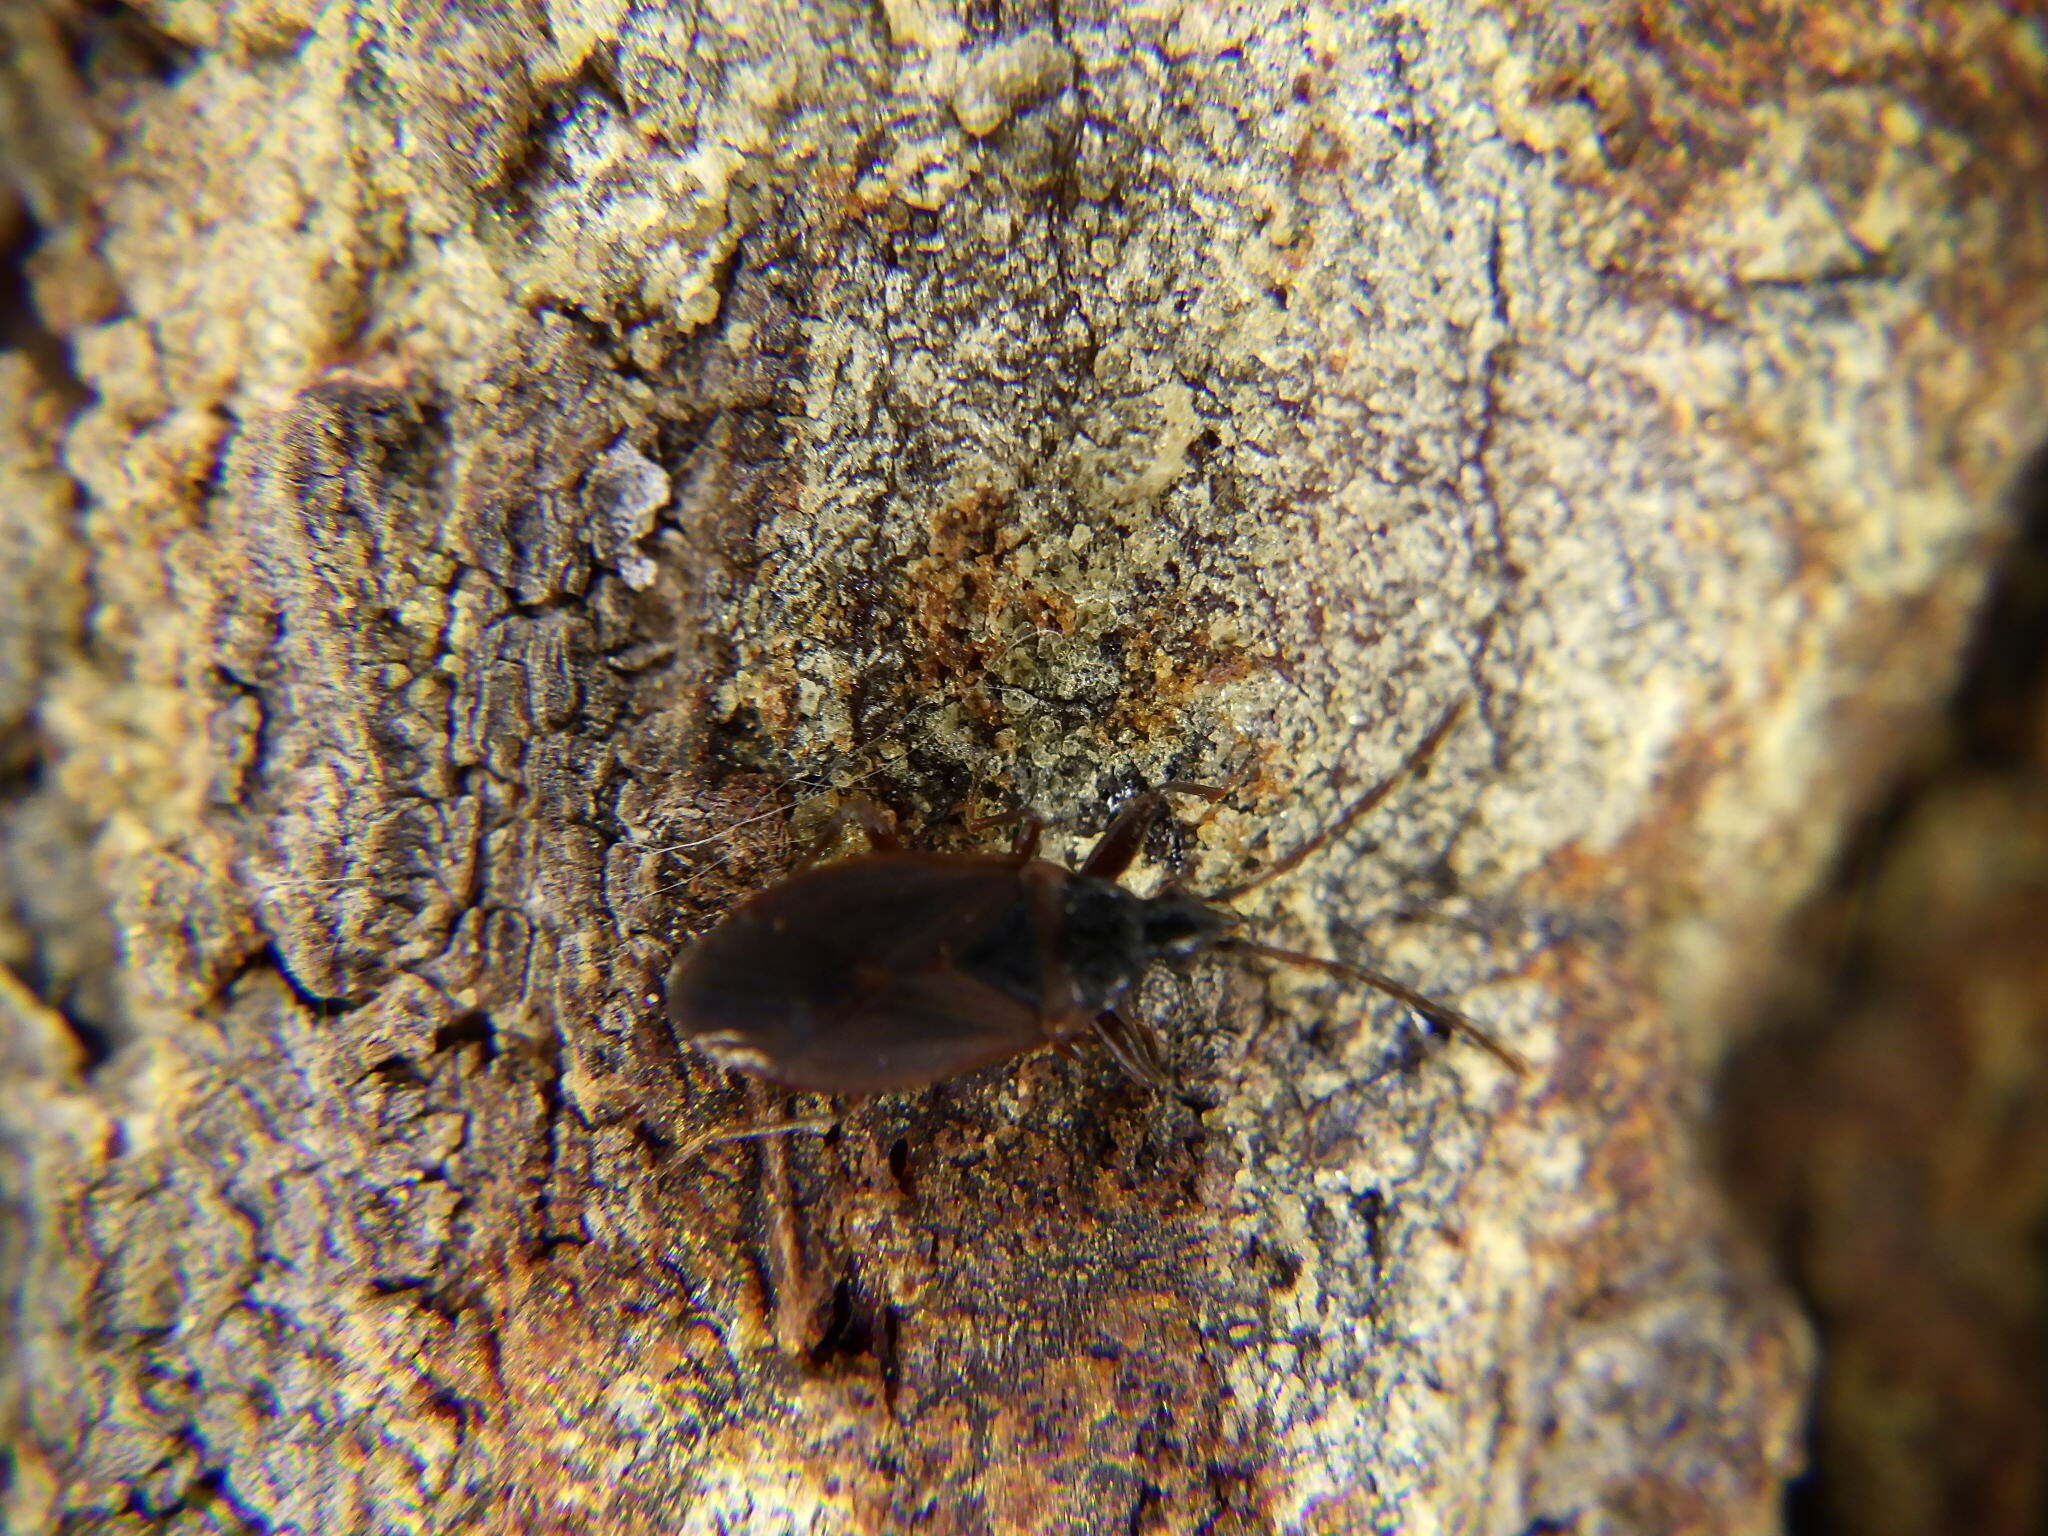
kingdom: Animalia
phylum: Arthropoda
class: Insecta
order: Hemiptera
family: Rhyparochromidae
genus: Gastrodes
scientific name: Gastrodes grossipes
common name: Pine cone bug
